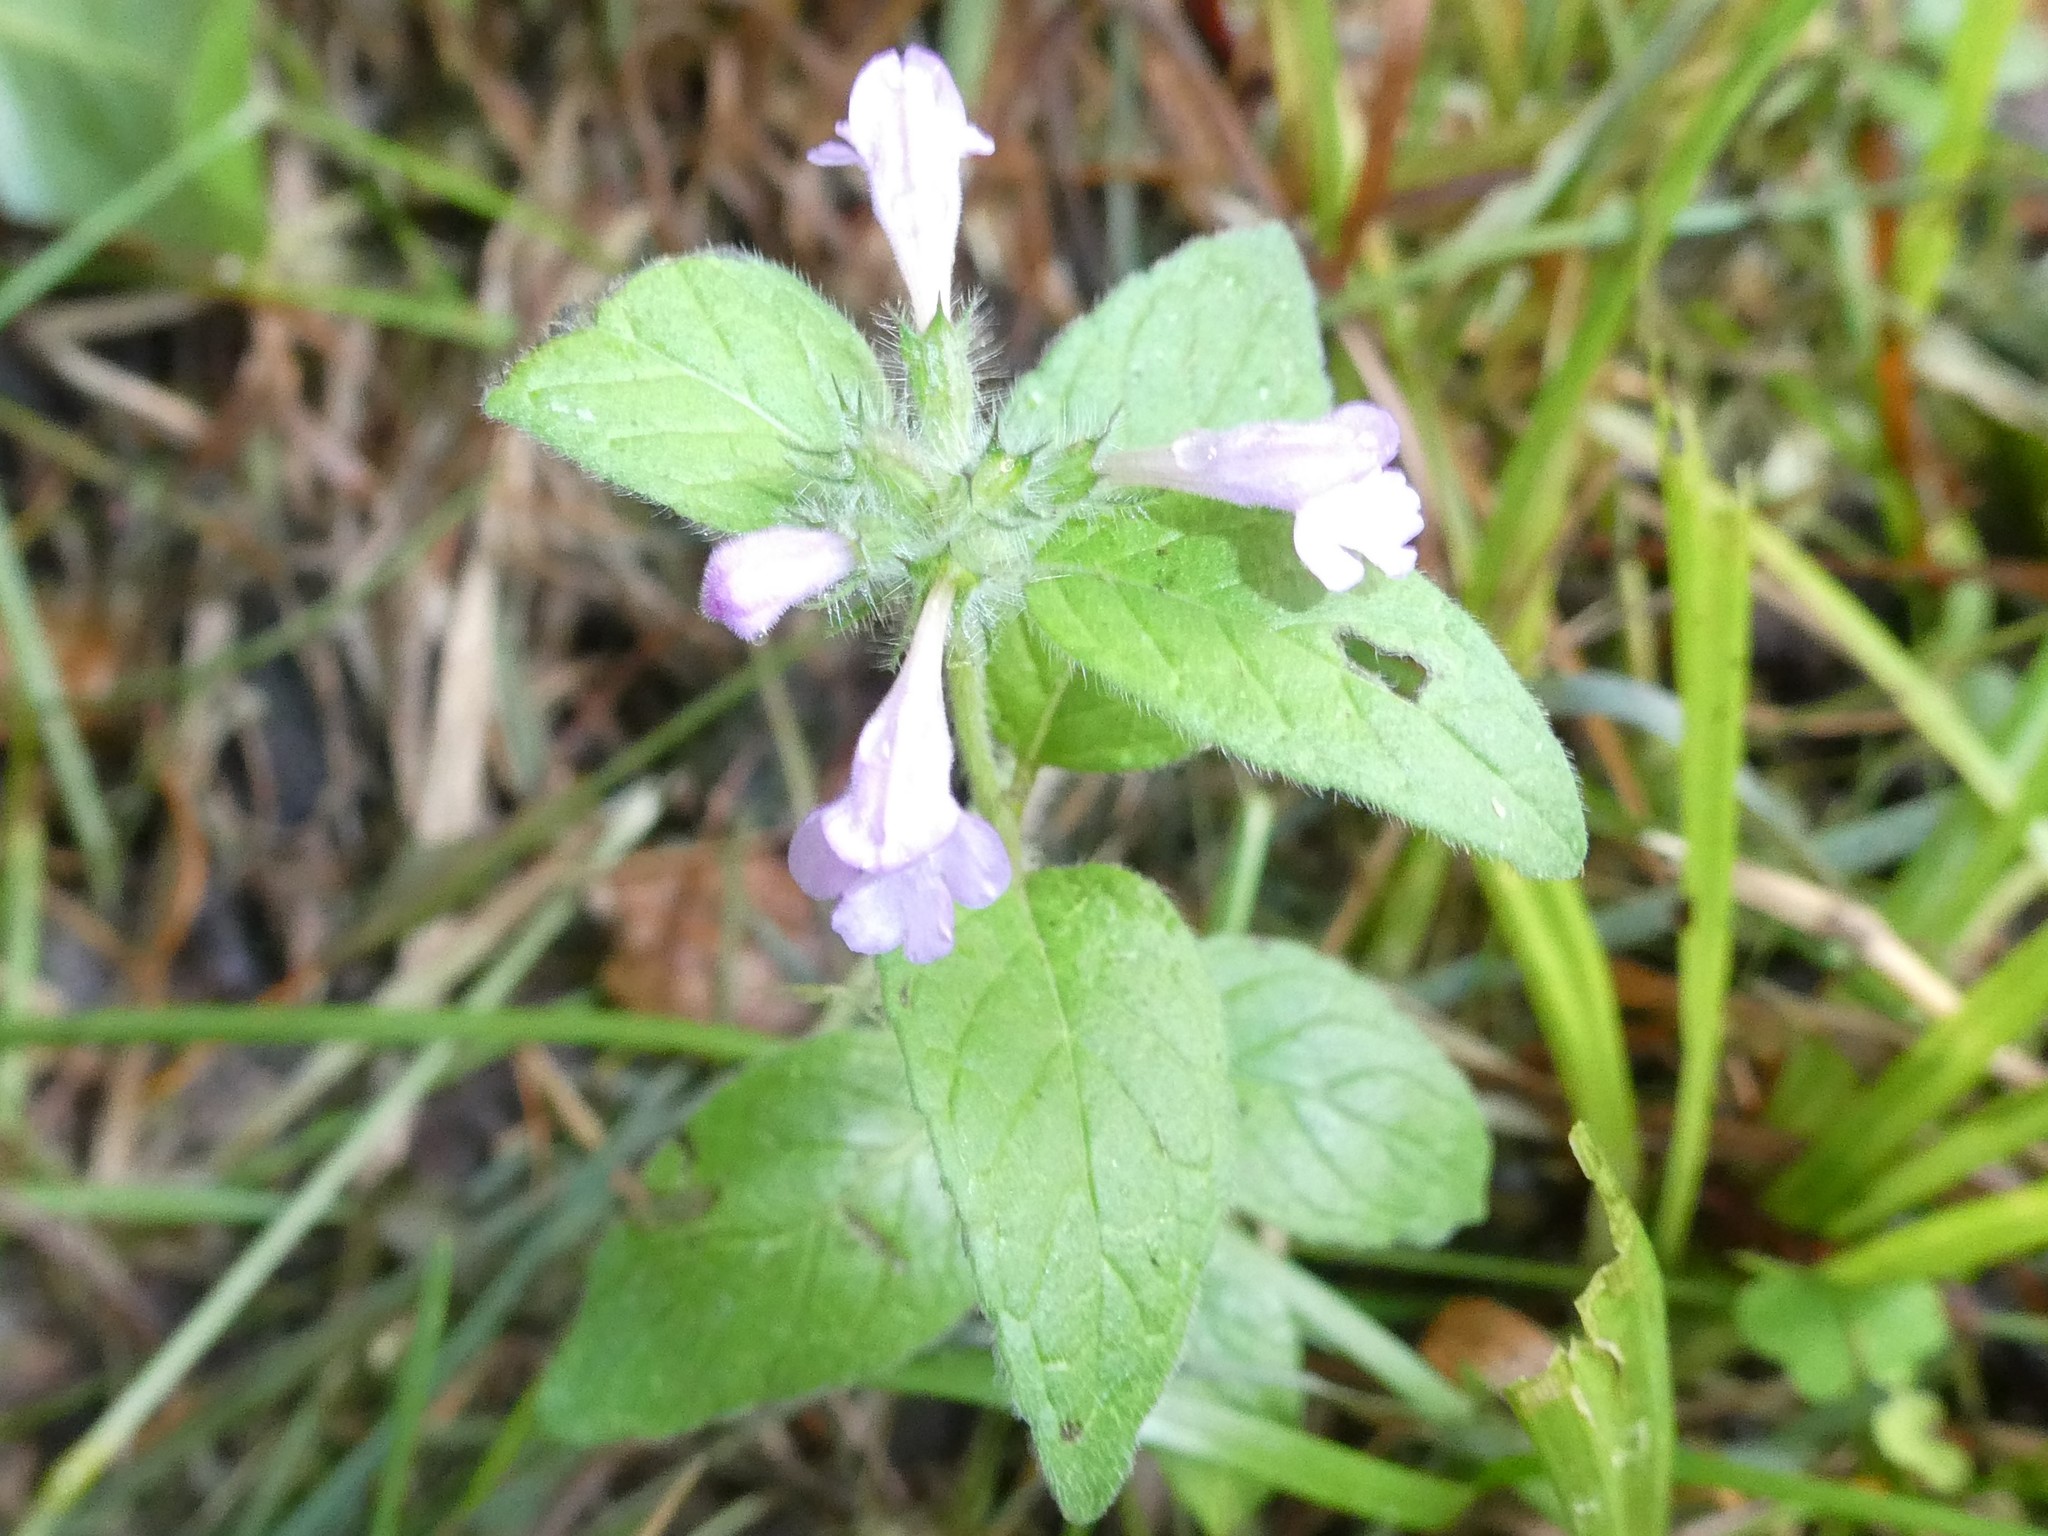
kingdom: Plantae
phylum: Tracheophyta
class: Magnoliopsida
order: Lamiales
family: Lamiaceae
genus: Clinopodium
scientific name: Clinopodium vulgare
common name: Wild basil
